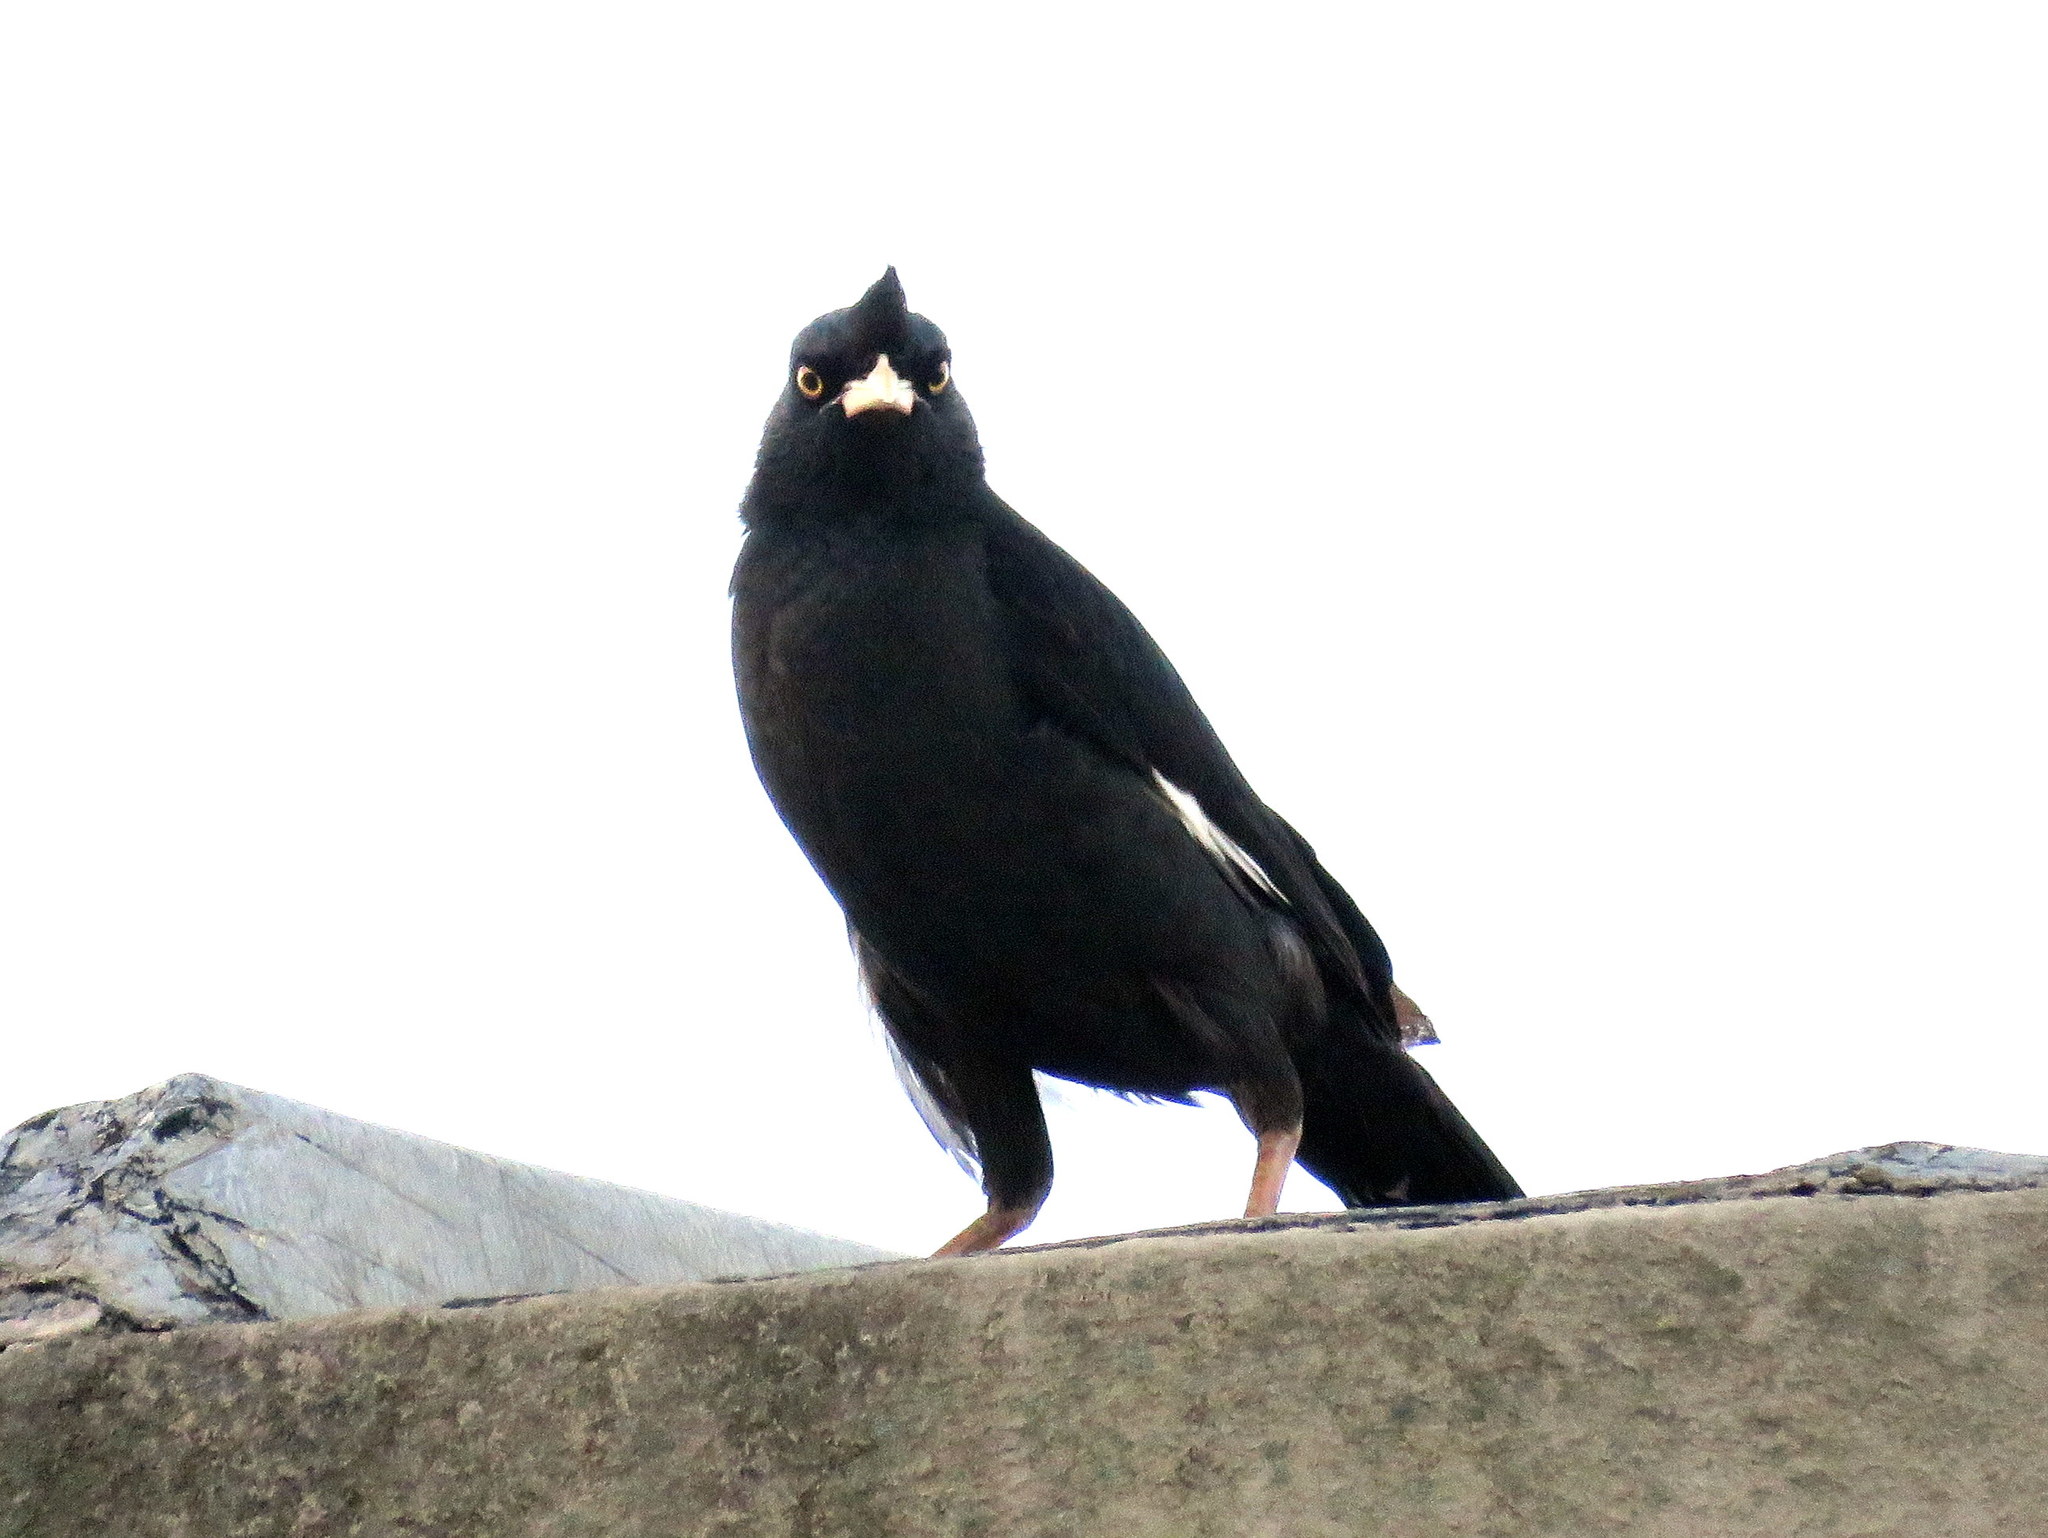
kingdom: Animalia
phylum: Chordata
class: Aves
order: Passeriformes
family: Sturnidae
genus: Acridotheres
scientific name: Acridotheres cristatellus
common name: Crested myna
